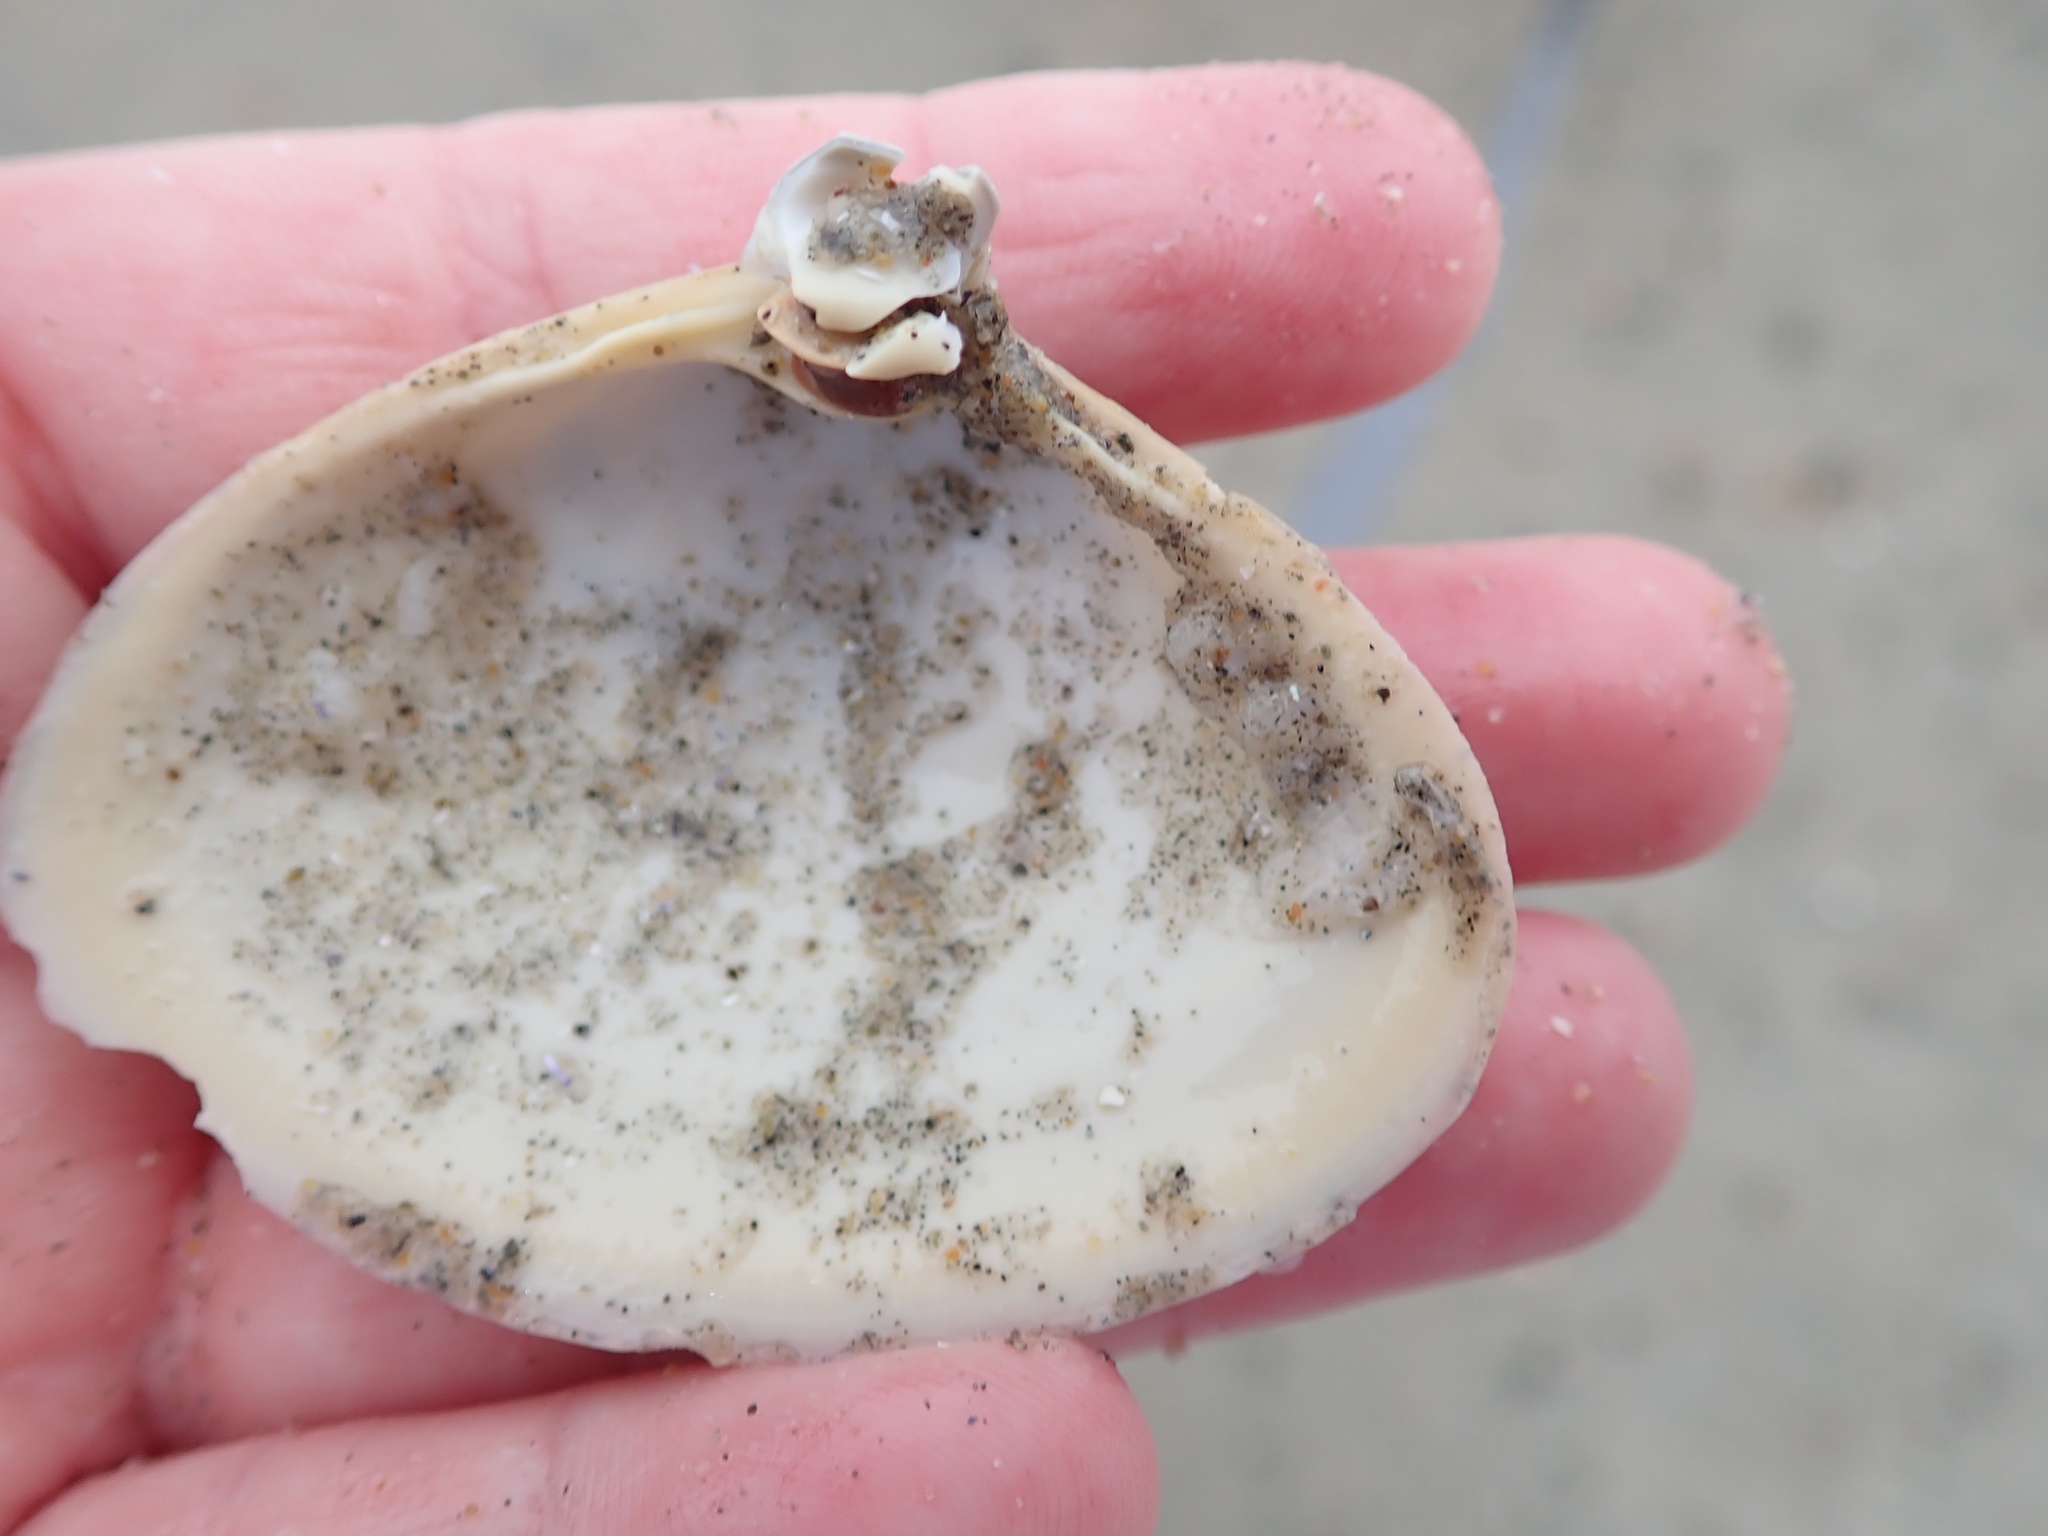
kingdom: Animalia
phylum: Mollusca
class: Bivalvia
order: Venerida
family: Mactridae
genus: Spisula
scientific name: Spisula solidissima
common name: Atlantic surf clam
